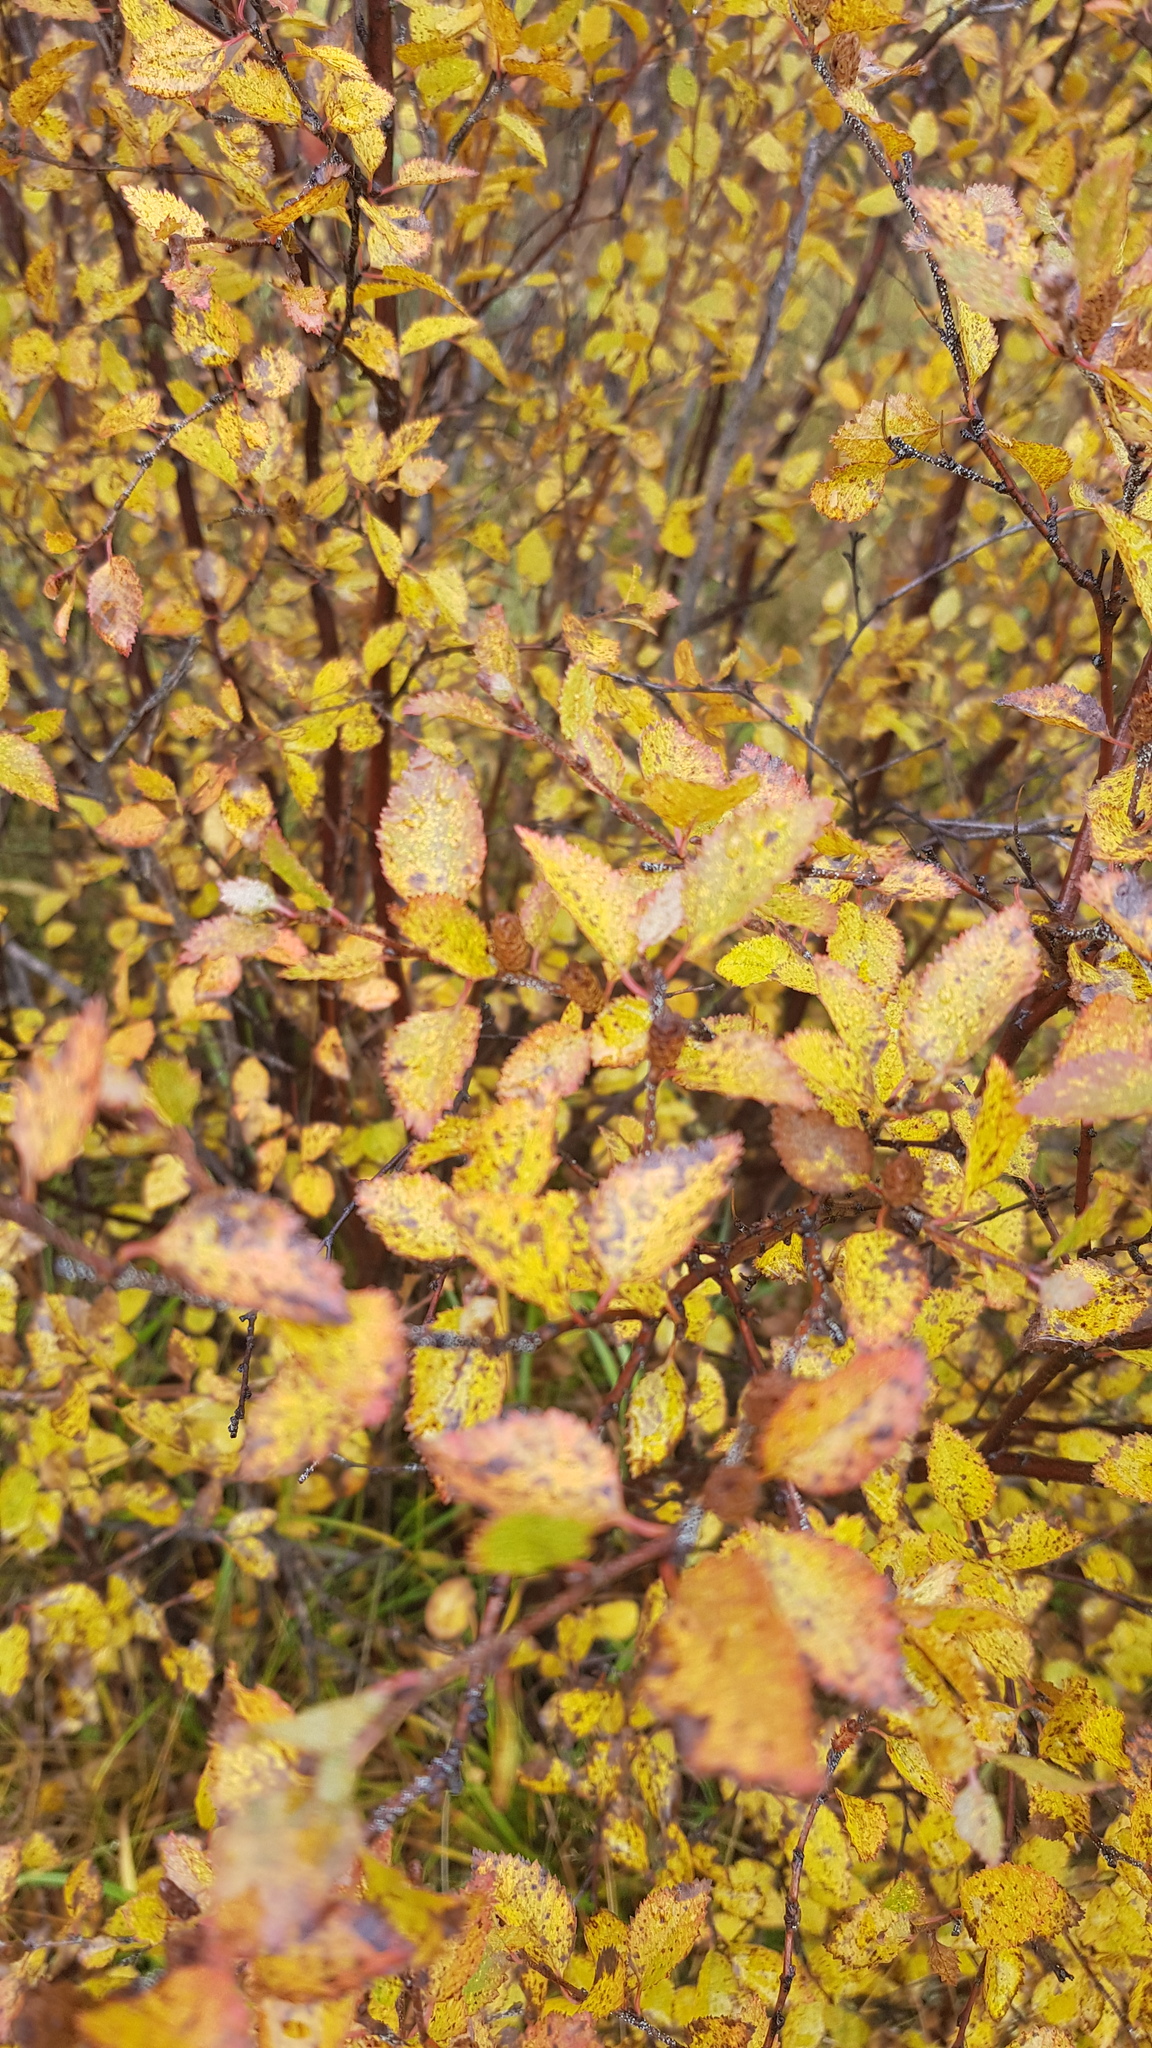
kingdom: Plantae
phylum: Tracheophyta
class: Magnoliopsida
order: Fagales
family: Betulaceae
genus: Betula
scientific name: Betula fruticosa
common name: Japanese bog birch
